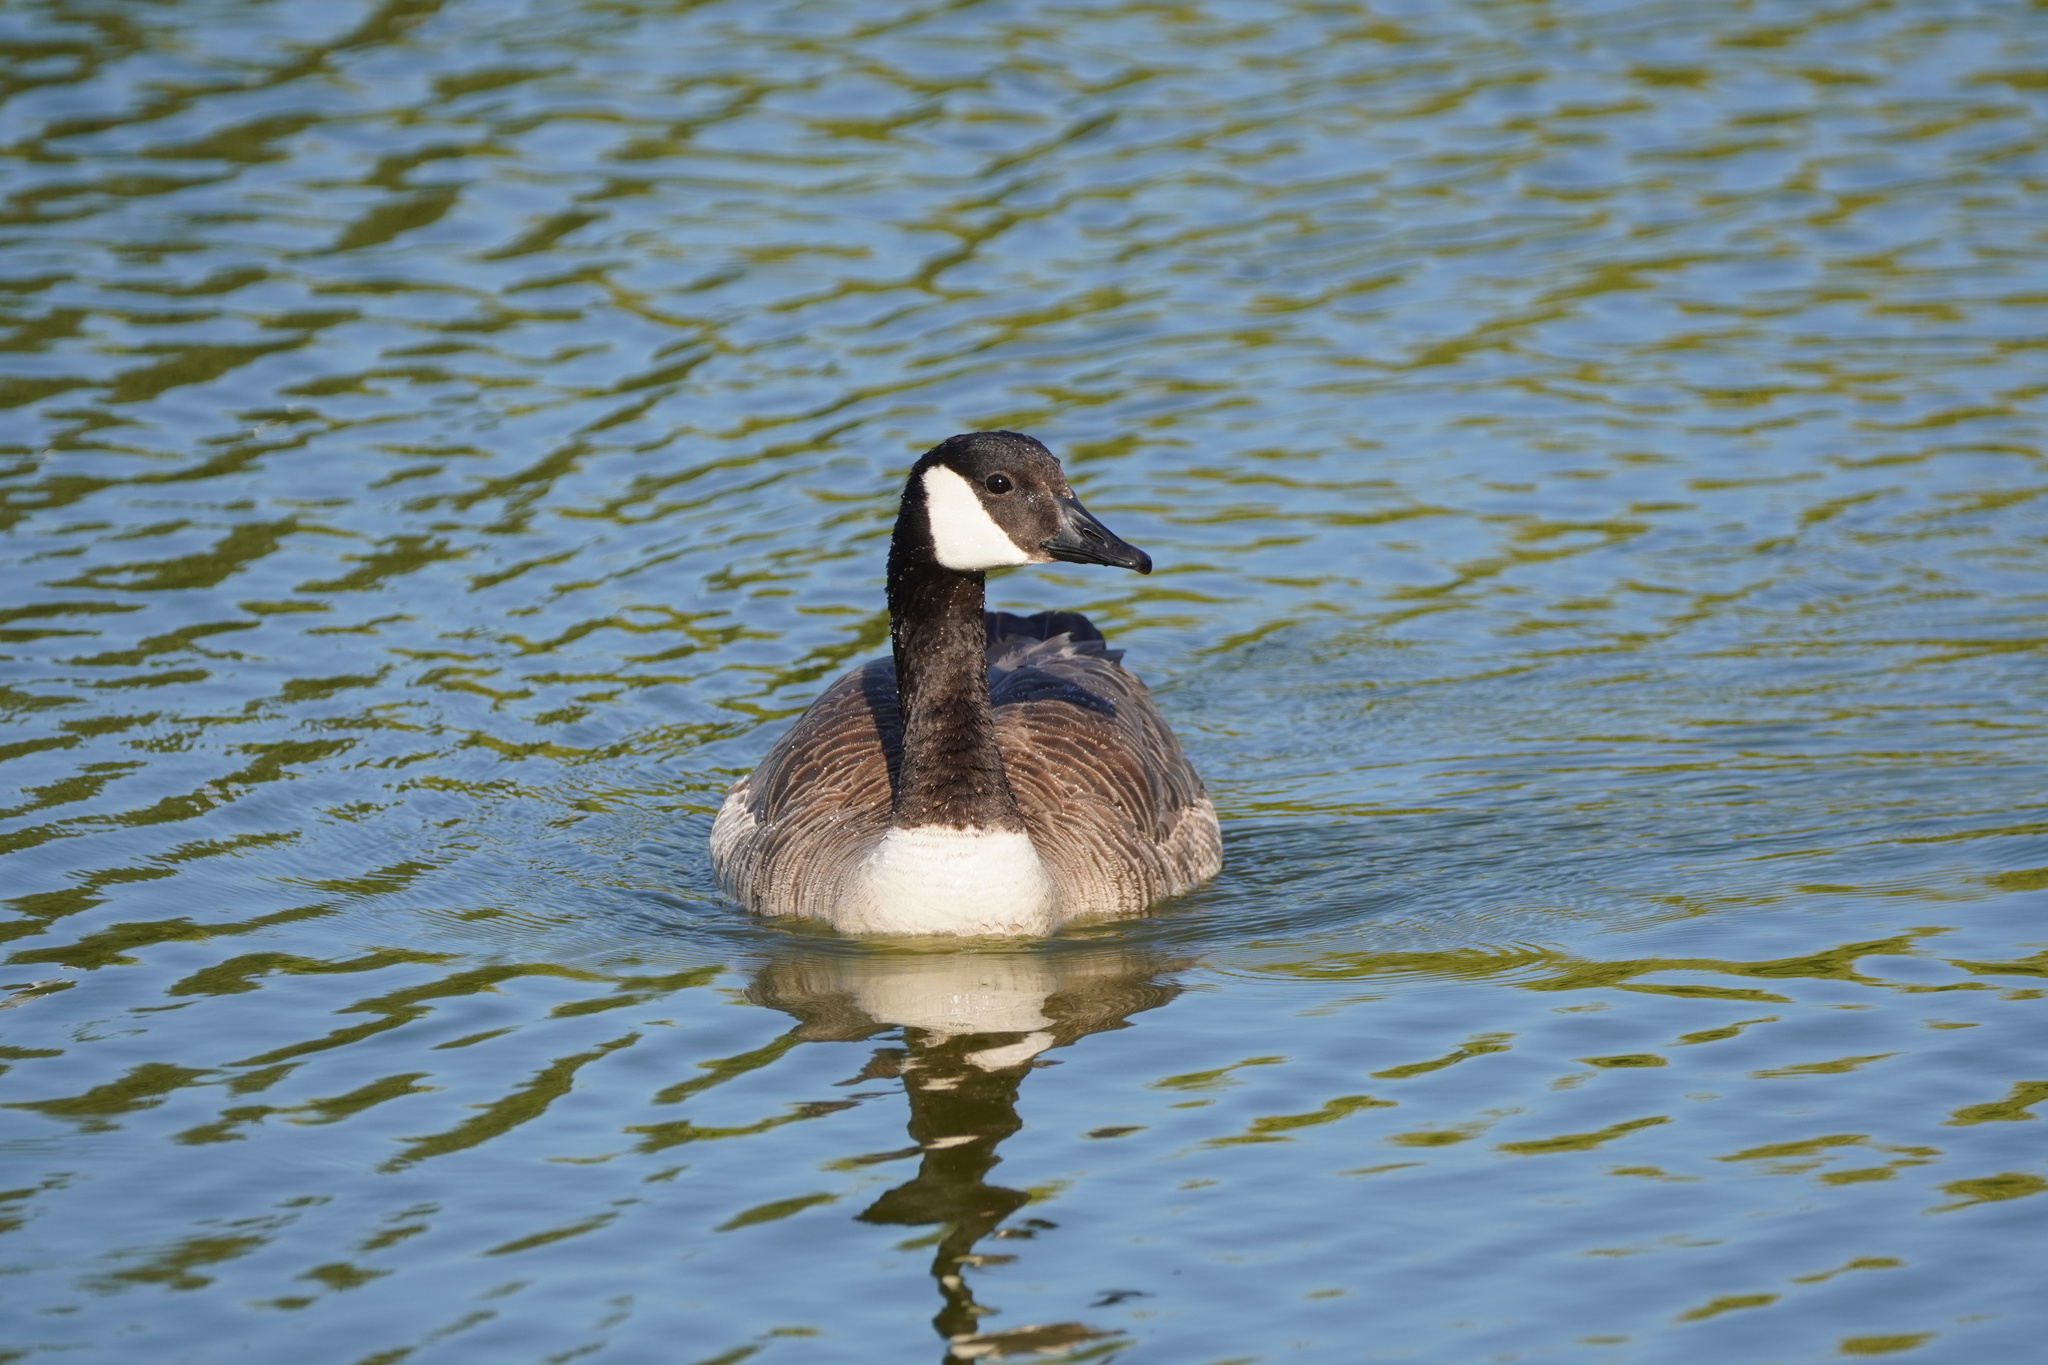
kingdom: Animalia
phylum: Chordata
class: Aves
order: Anseriformes
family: Anatidae
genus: Branta
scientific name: Branta canadensis
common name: Canada goose
